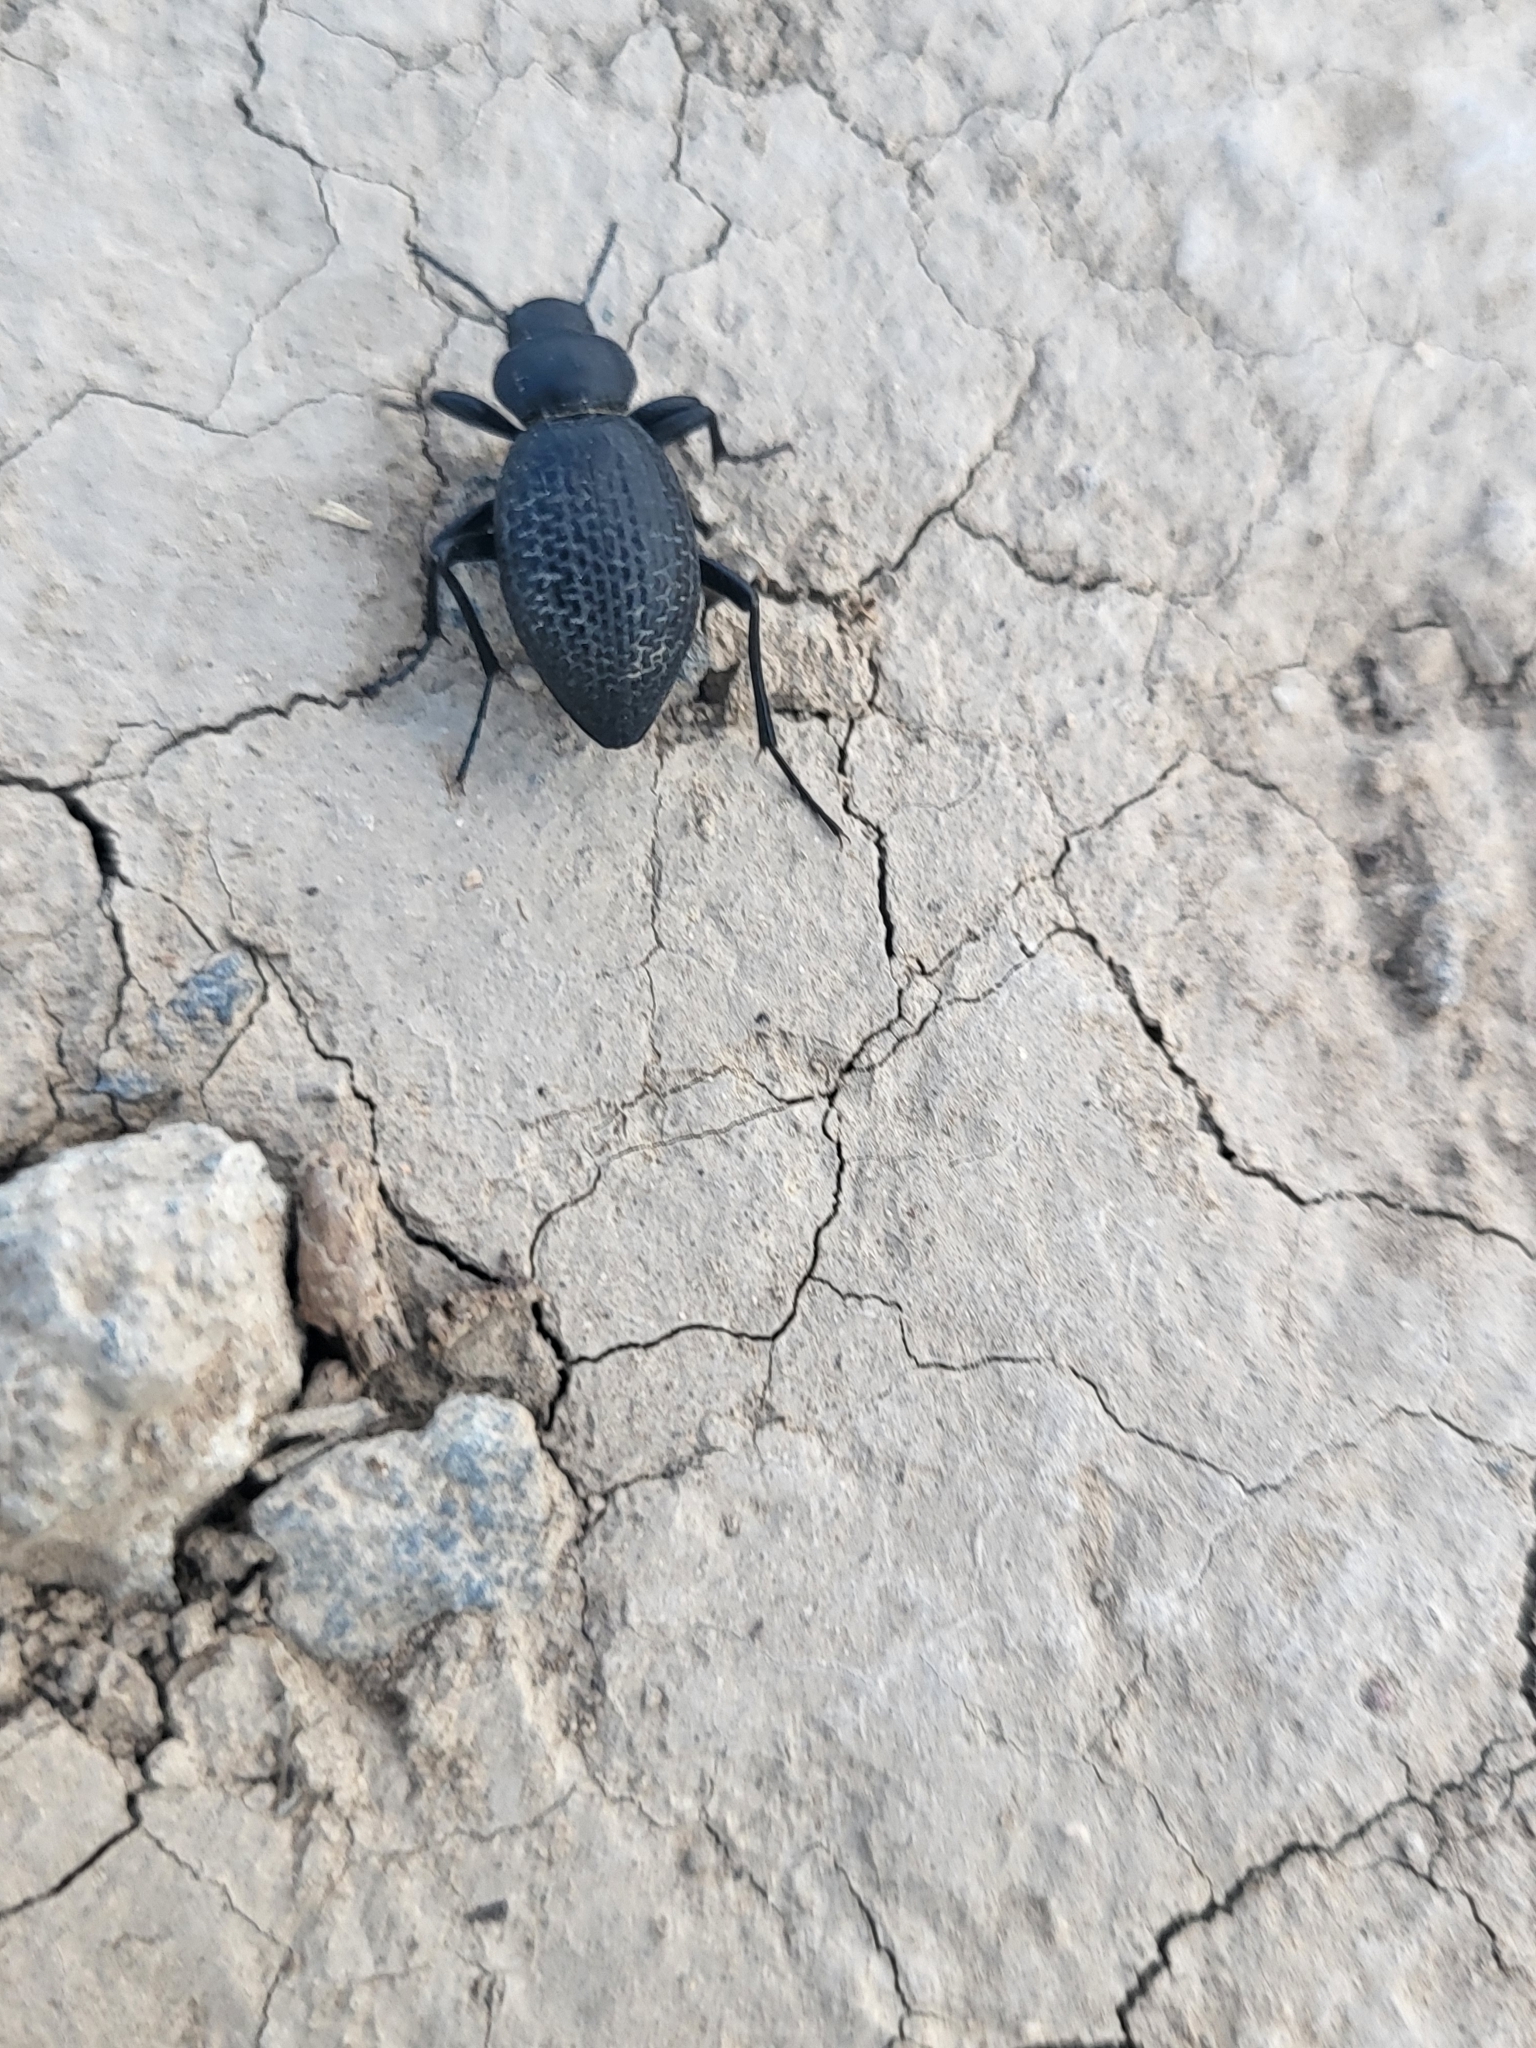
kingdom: Animalia
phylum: Arthropoda
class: Insecta
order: Coleoptera
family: Tenebrionidae
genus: Tentyria
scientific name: Tentyria
